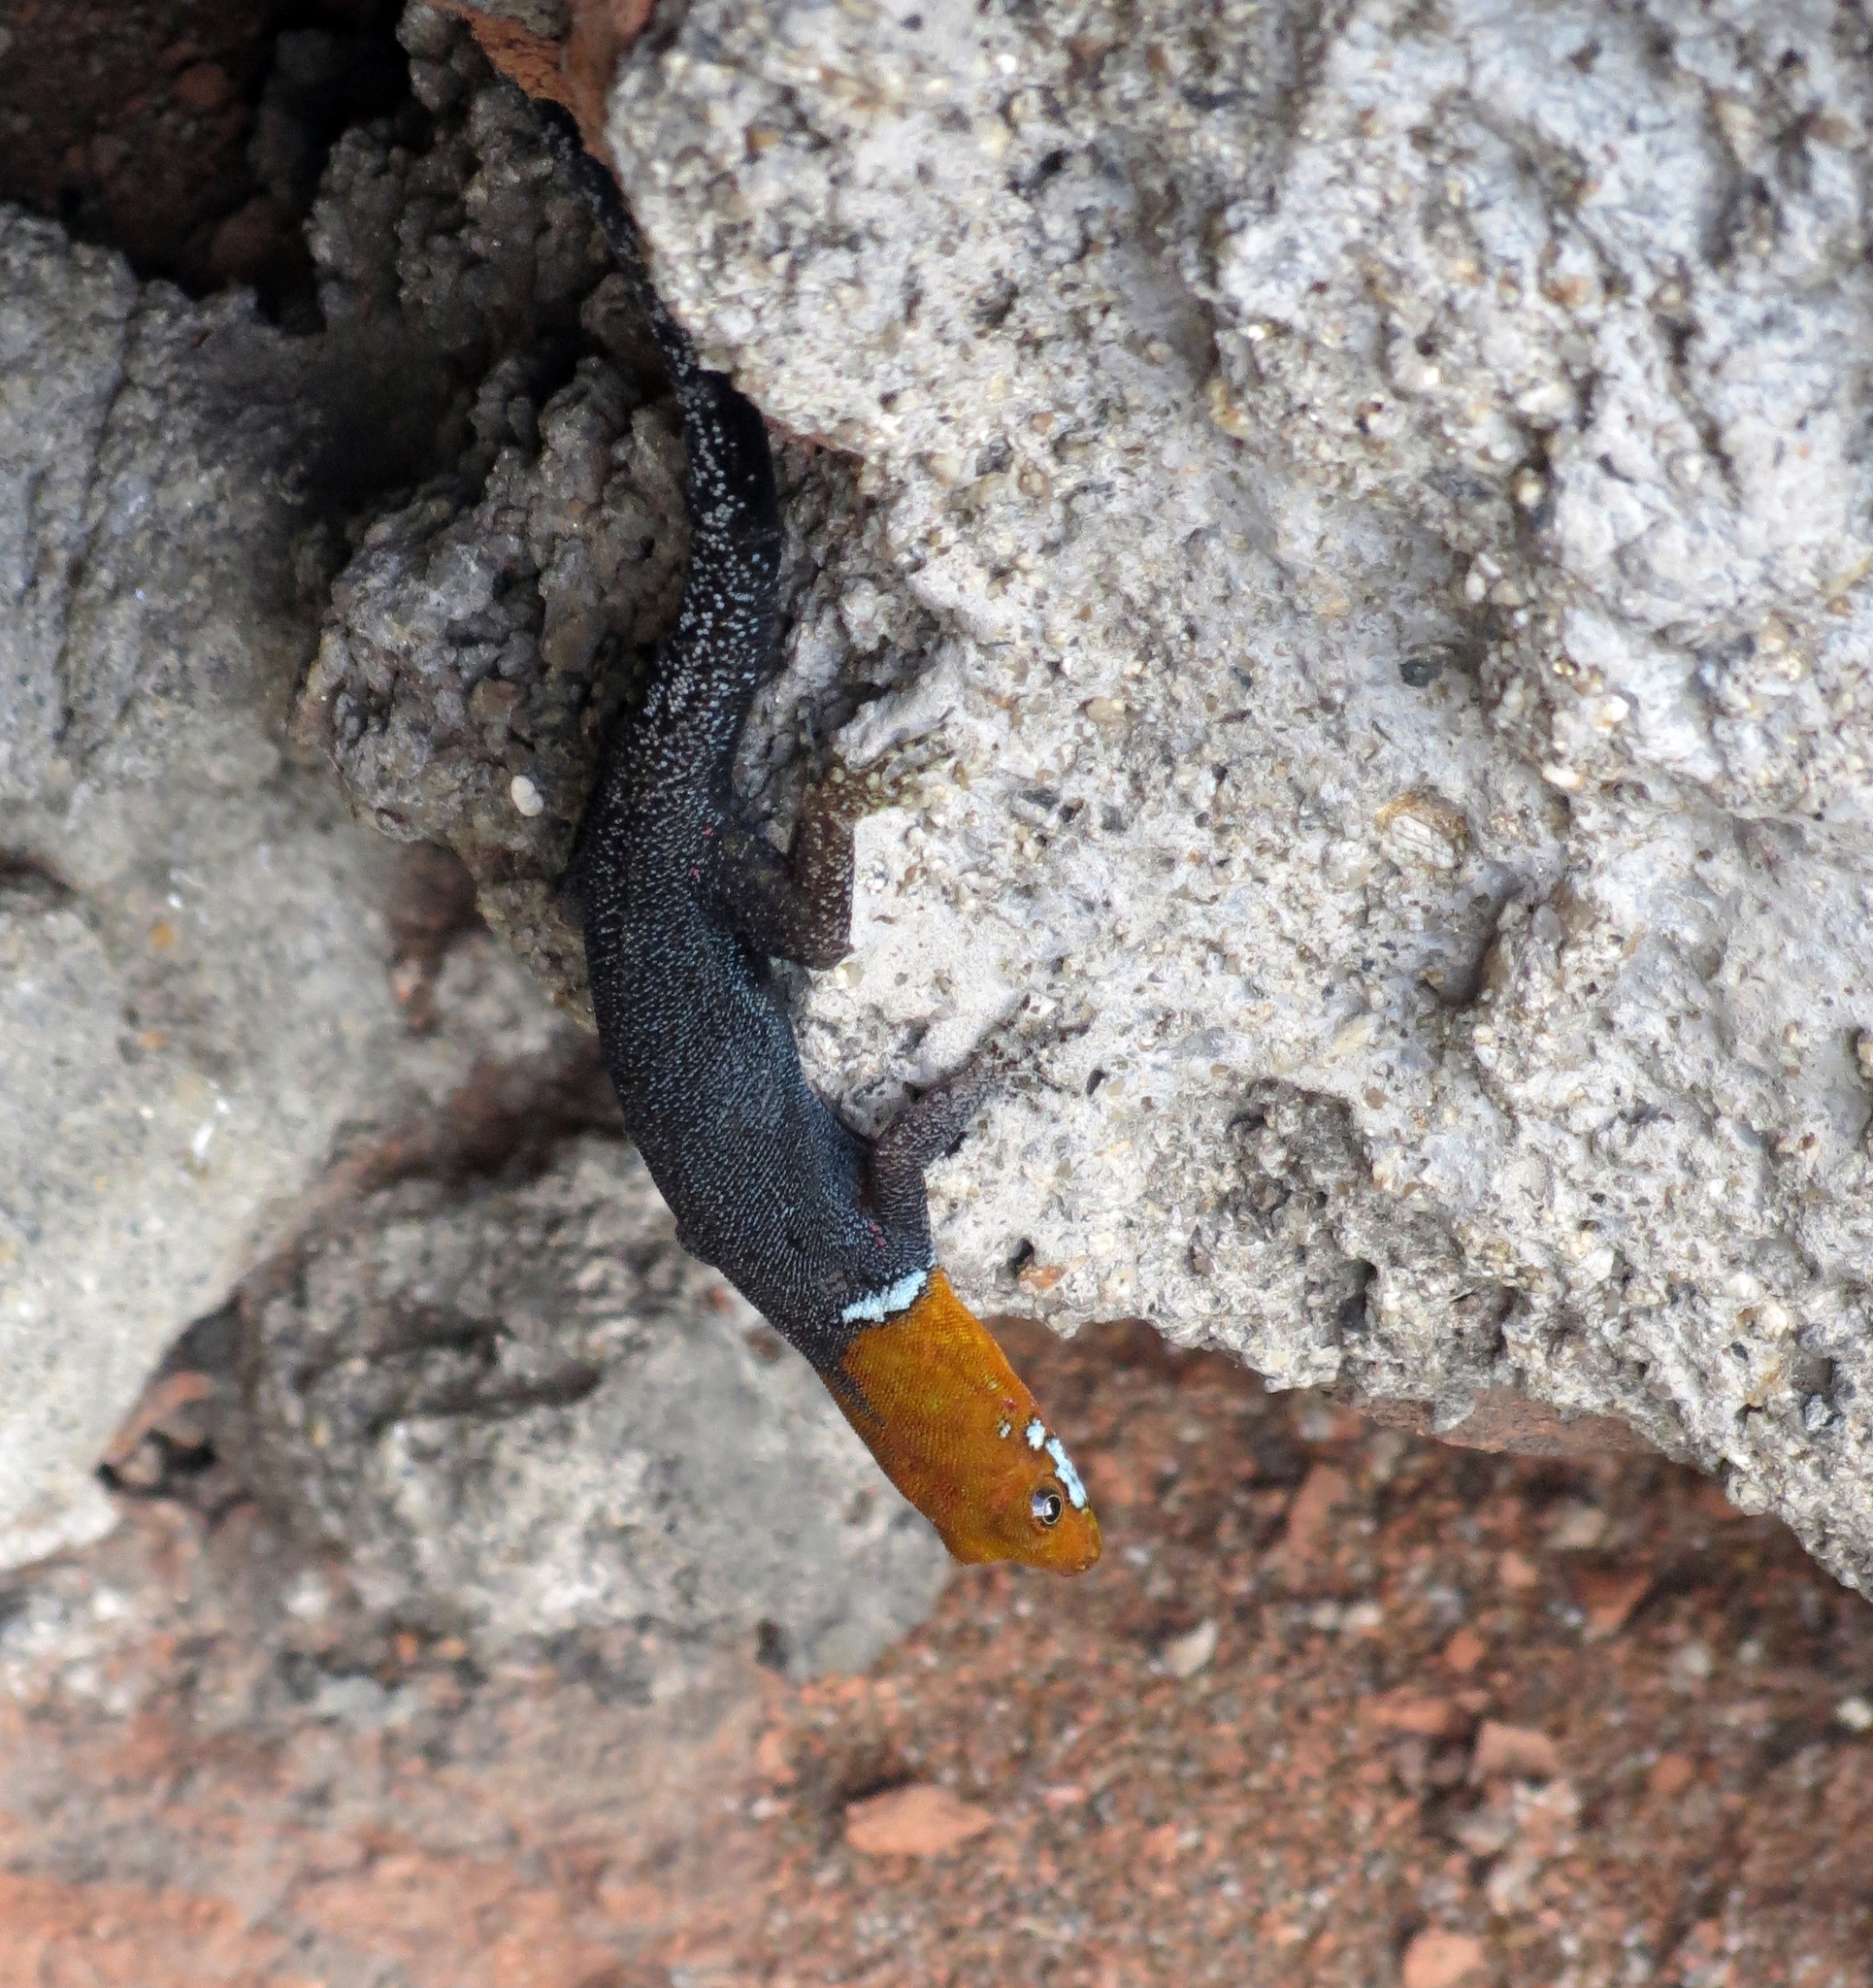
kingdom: Animalia
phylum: Chordata
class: Squamata
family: Sphaerodactylidae
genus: Gonatodes
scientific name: Gonatodes albogularis
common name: Yellow-headed gecko
